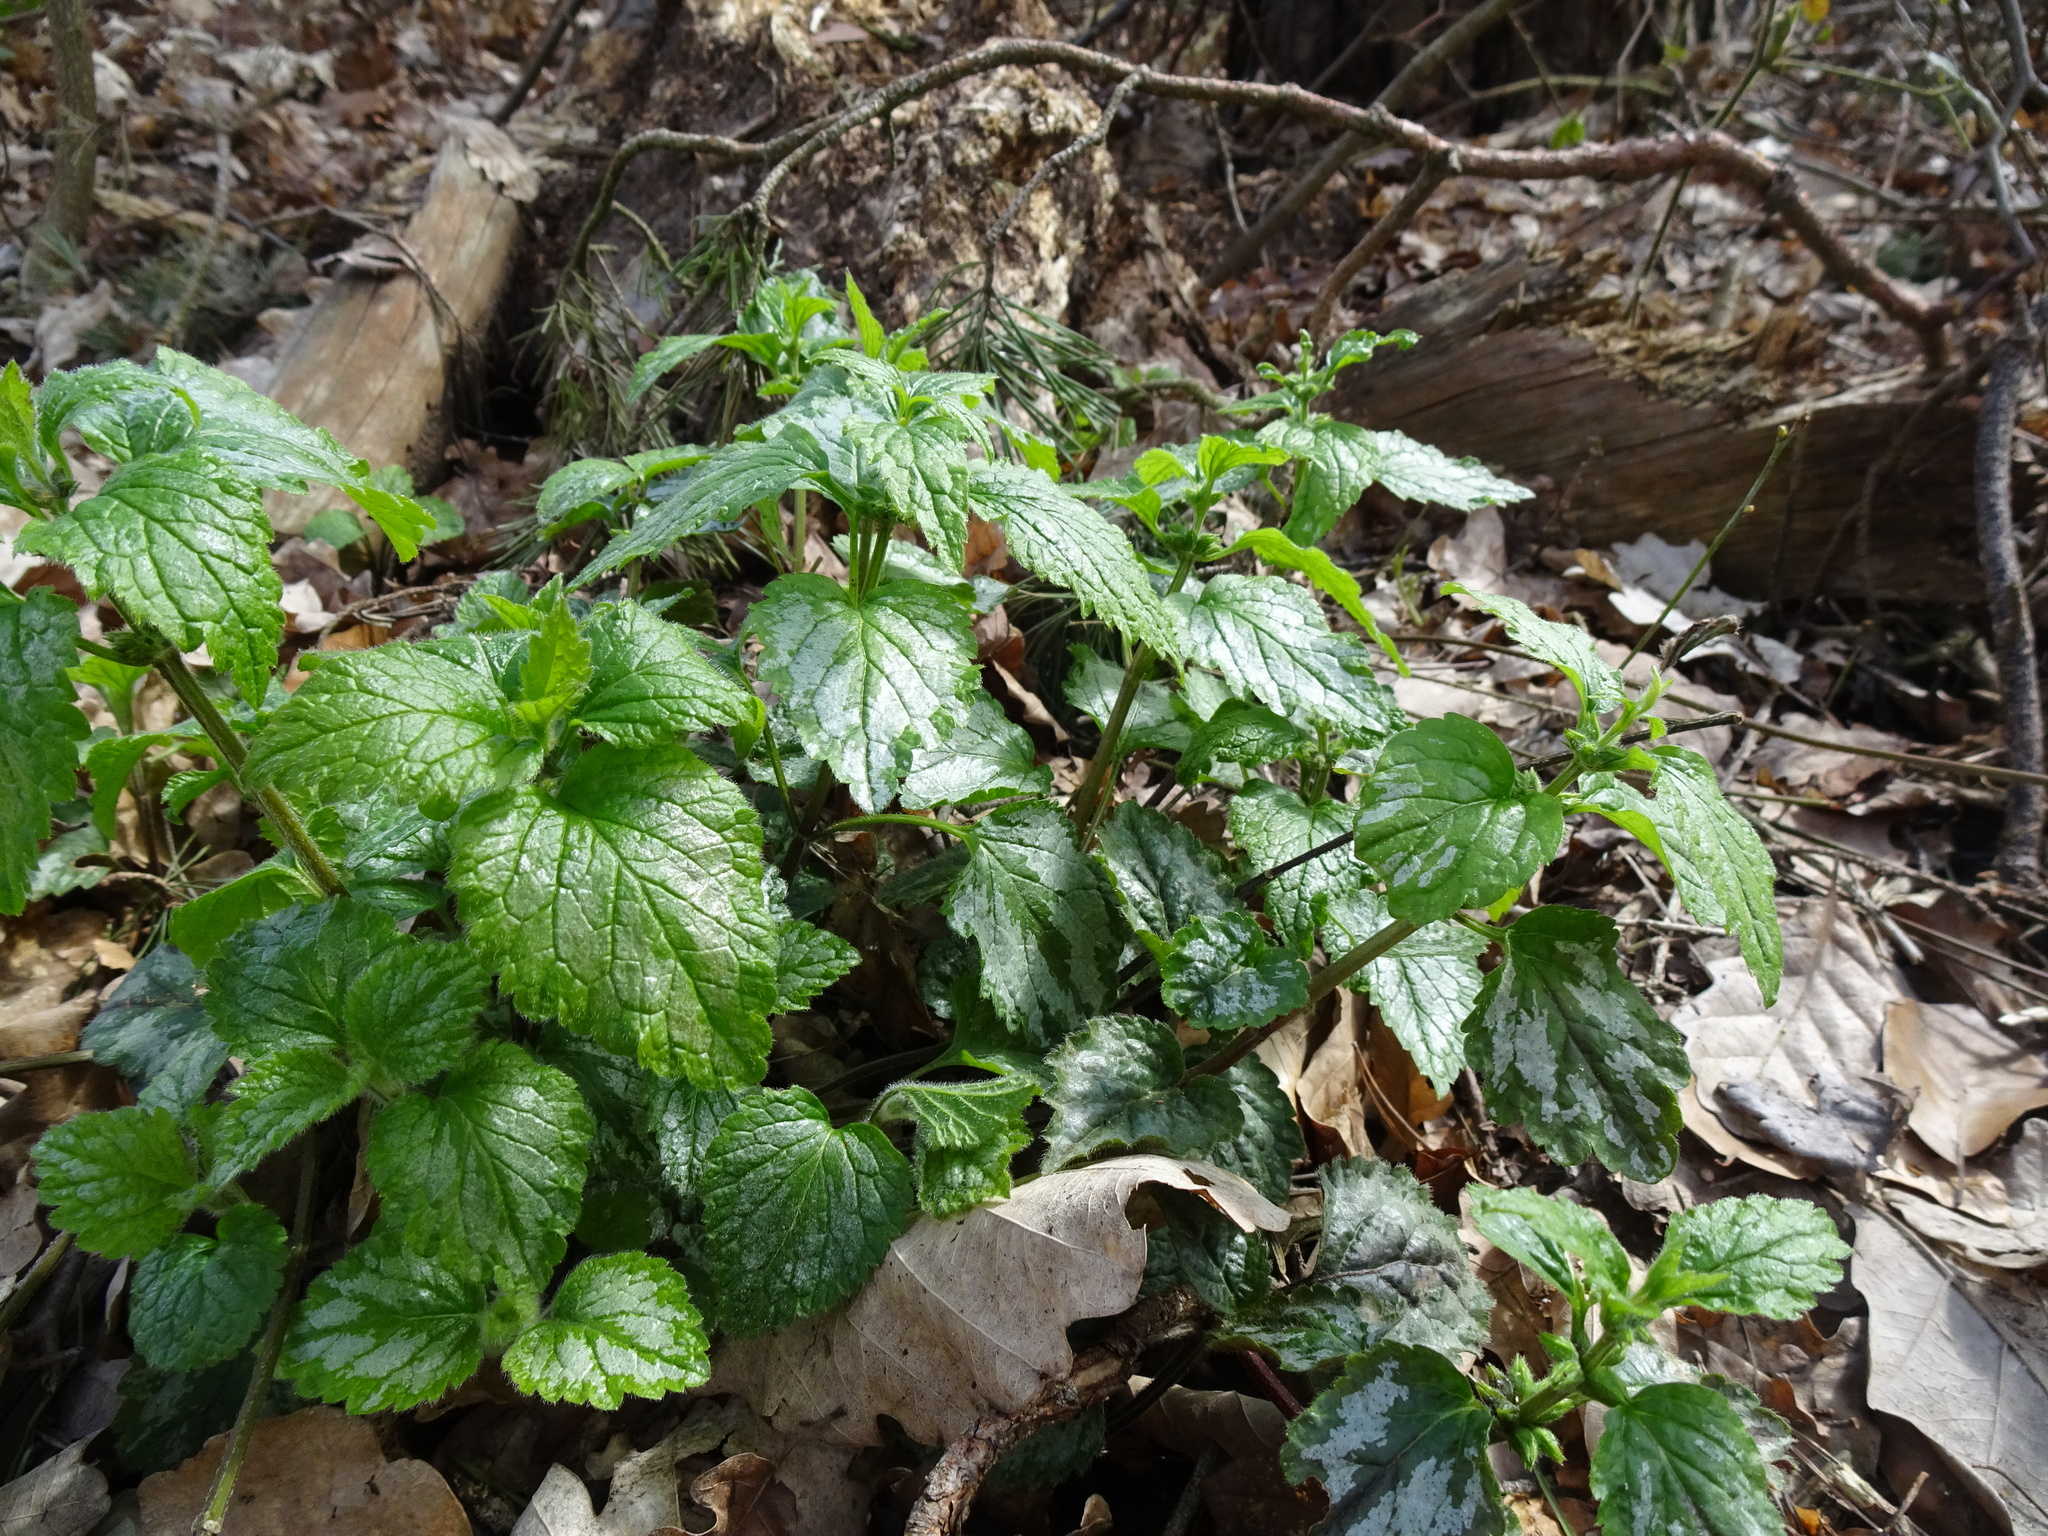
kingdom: Plantae
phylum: Tracheophyta
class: Magnoliopsida
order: Lamiales
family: Lamiaceae
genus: Lamium
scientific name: Lamium galeobdolon
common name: Yellow archangel
